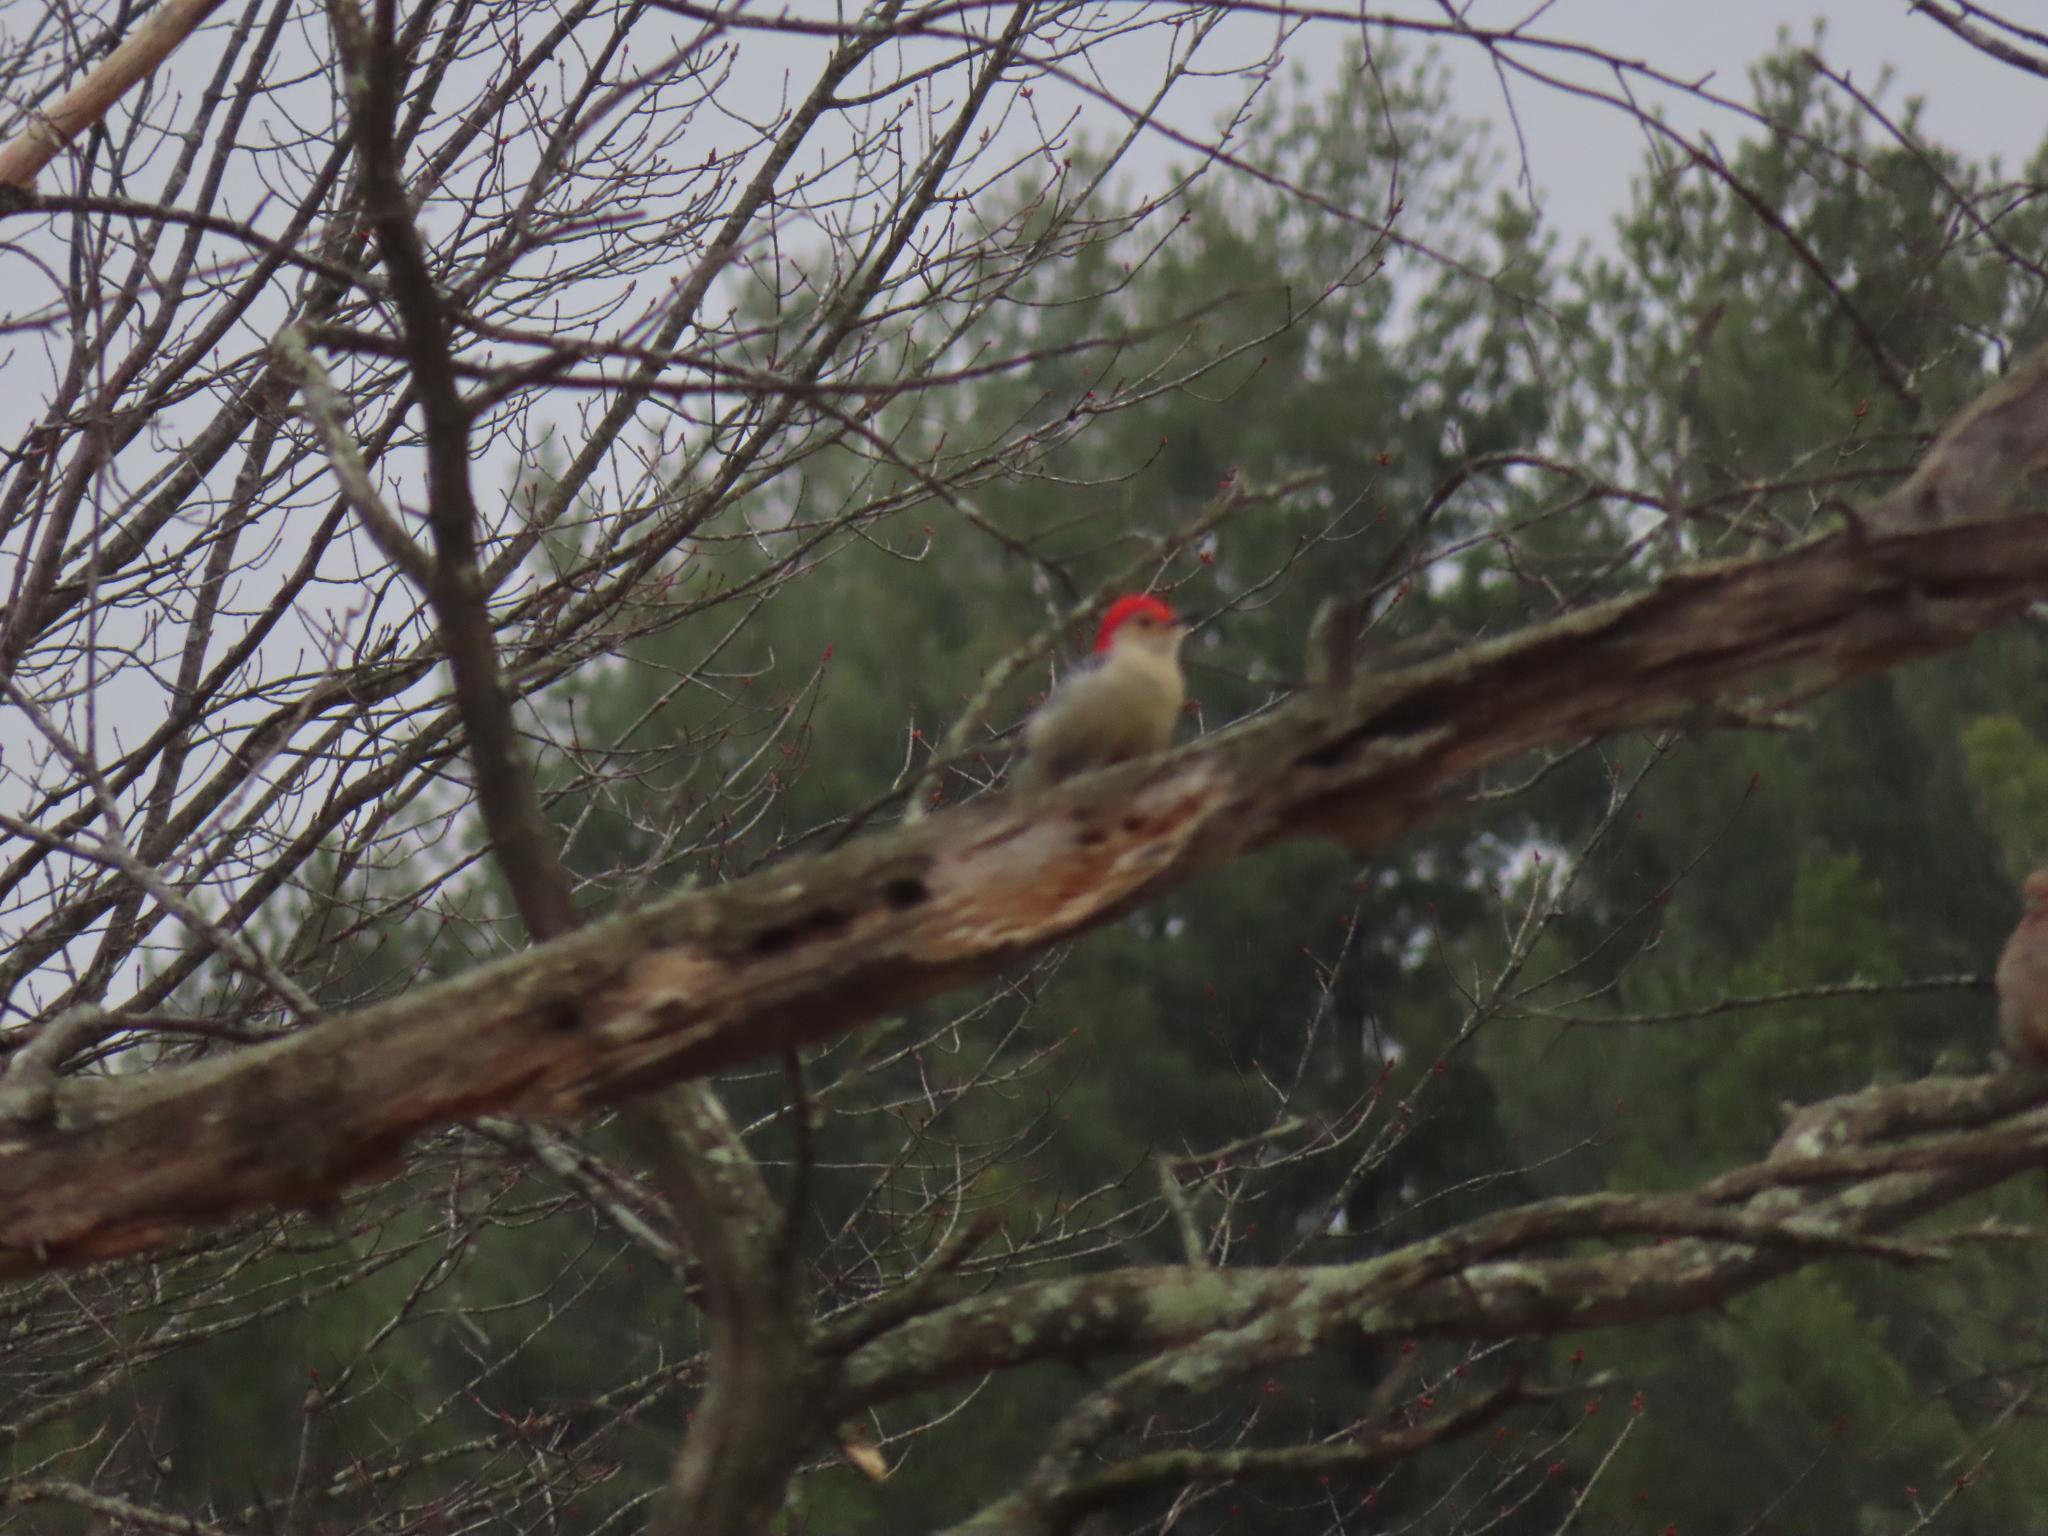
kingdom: Animalia
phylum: Chordata
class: Aves
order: Piciformes
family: Picidae
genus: Melanerpes
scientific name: Melanerpes carolinus
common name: Red-bellied woodpecker
